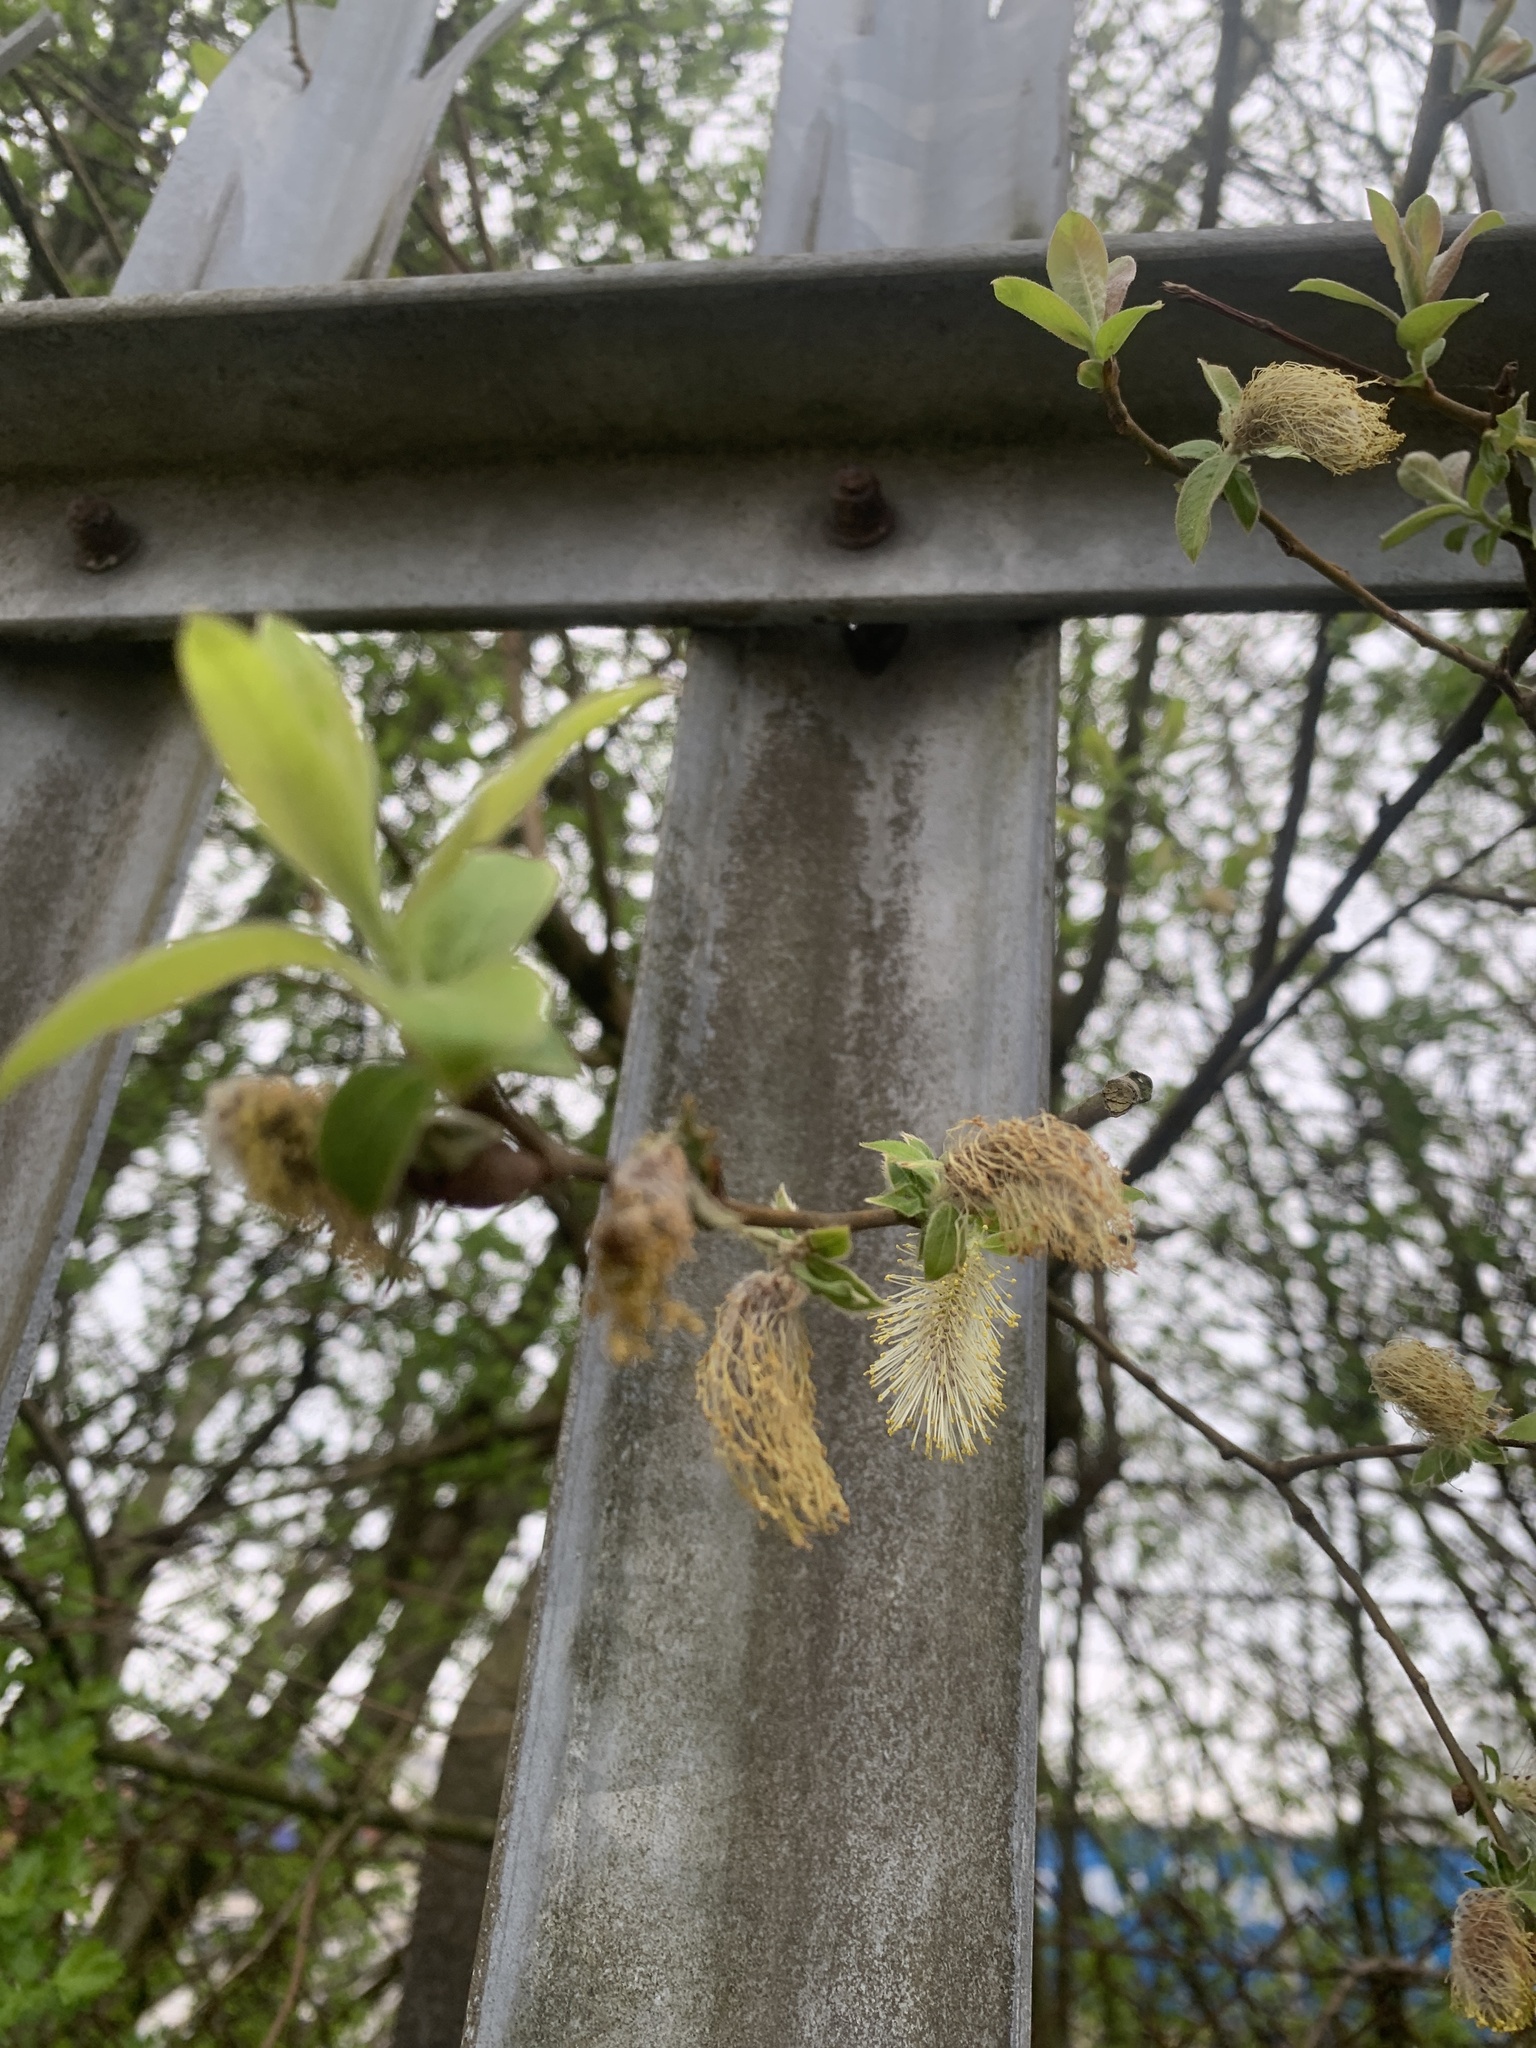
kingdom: Plantae
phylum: Tracheophyta
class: Magnoliopsida
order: Malpighiales
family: Salicaceae
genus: Salix
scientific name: Salix cinerea
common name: Common sallow
